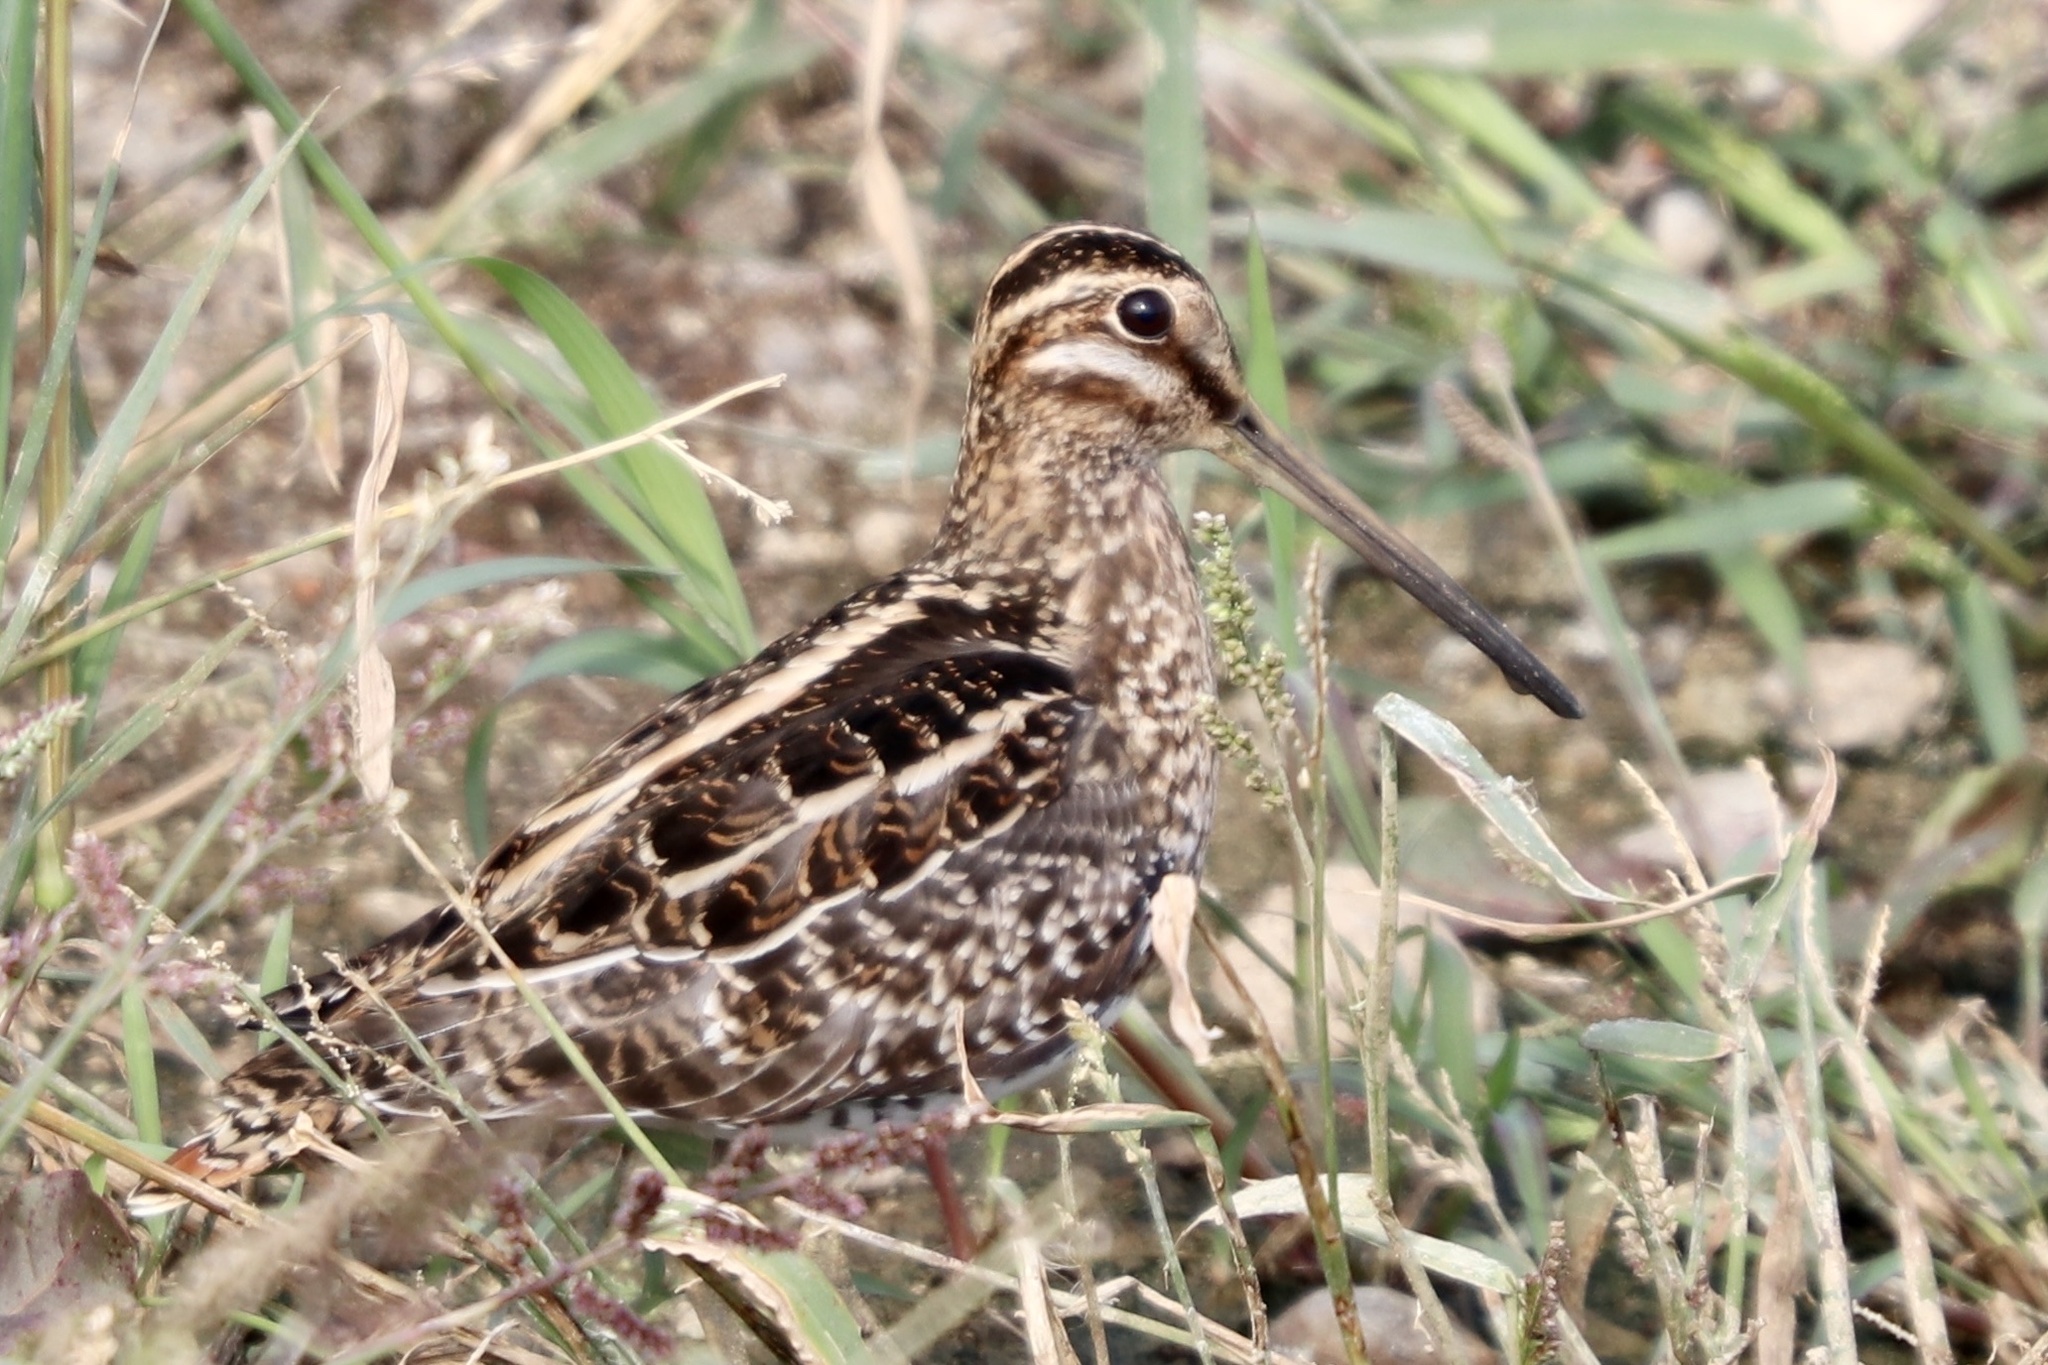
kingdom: Animalia
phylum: Chordata
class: Aves
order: Charadriiformes
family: Scolopacidae
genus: Gallinago
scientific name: Gallinago delicata
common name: Wilson's snipe
